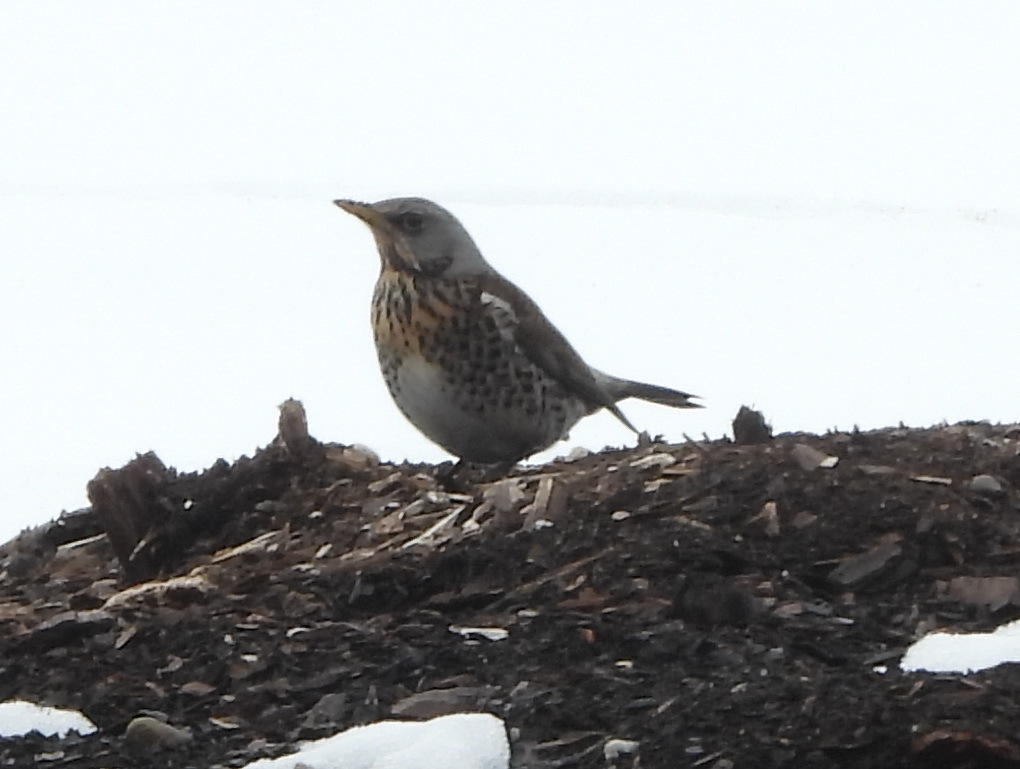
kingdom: Animalia
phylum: Chordata
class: Aves
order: Passeriformes
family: Turdidae
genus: Turdus
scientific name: Turdus pilaris
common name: Fieldfare
